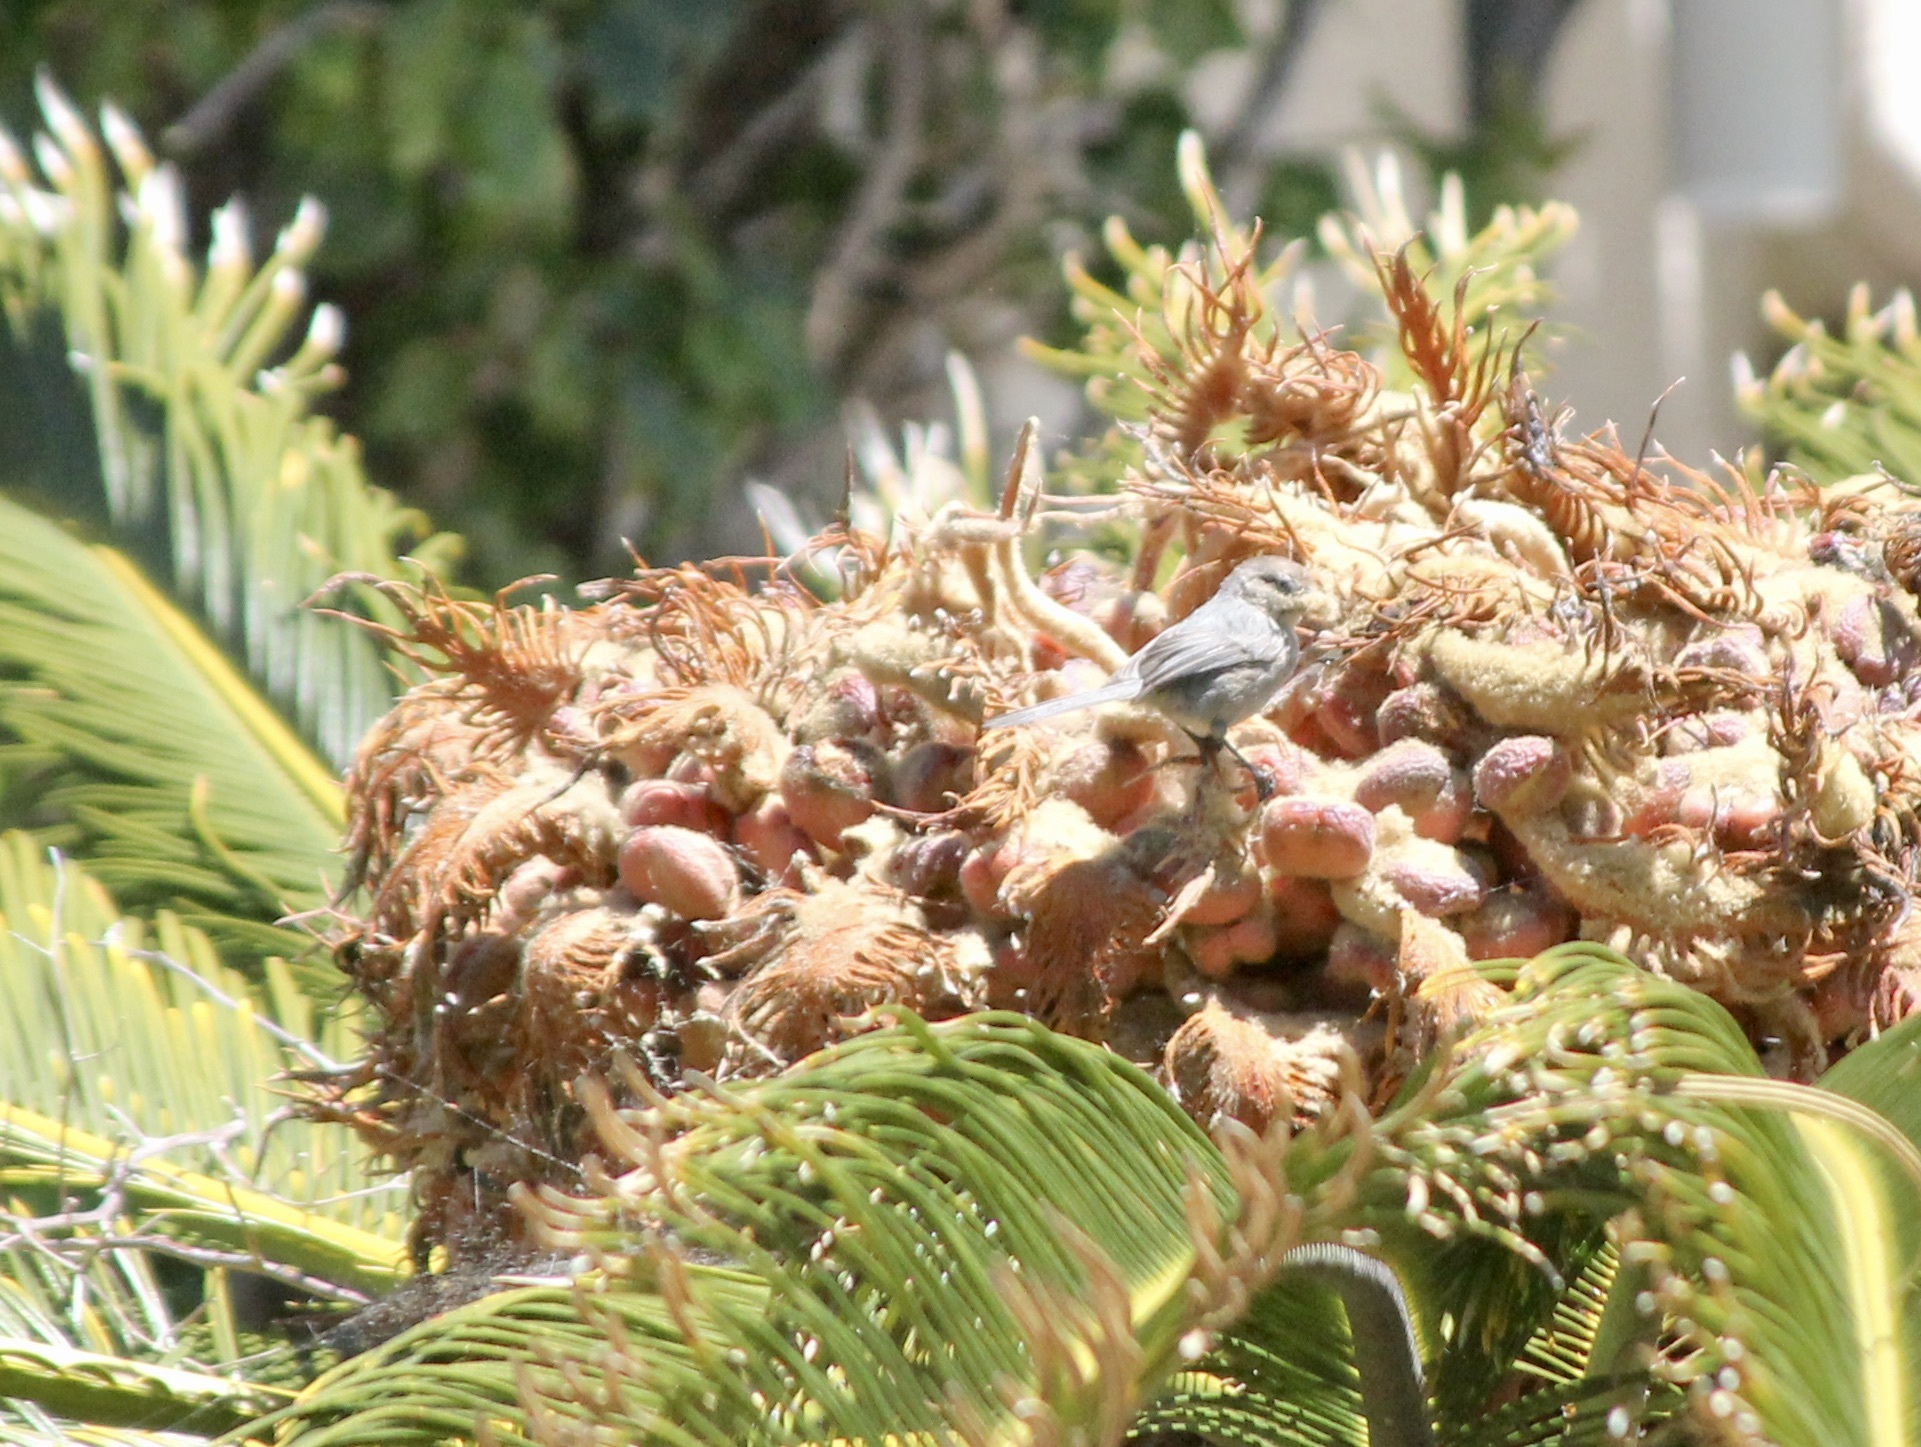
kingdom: Animalia
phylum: Chordata
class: Aves
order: Passeriformes
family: Aegithalidae
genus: Psaltriparus
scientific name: Psaltriparus minimus
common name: American bushtit
